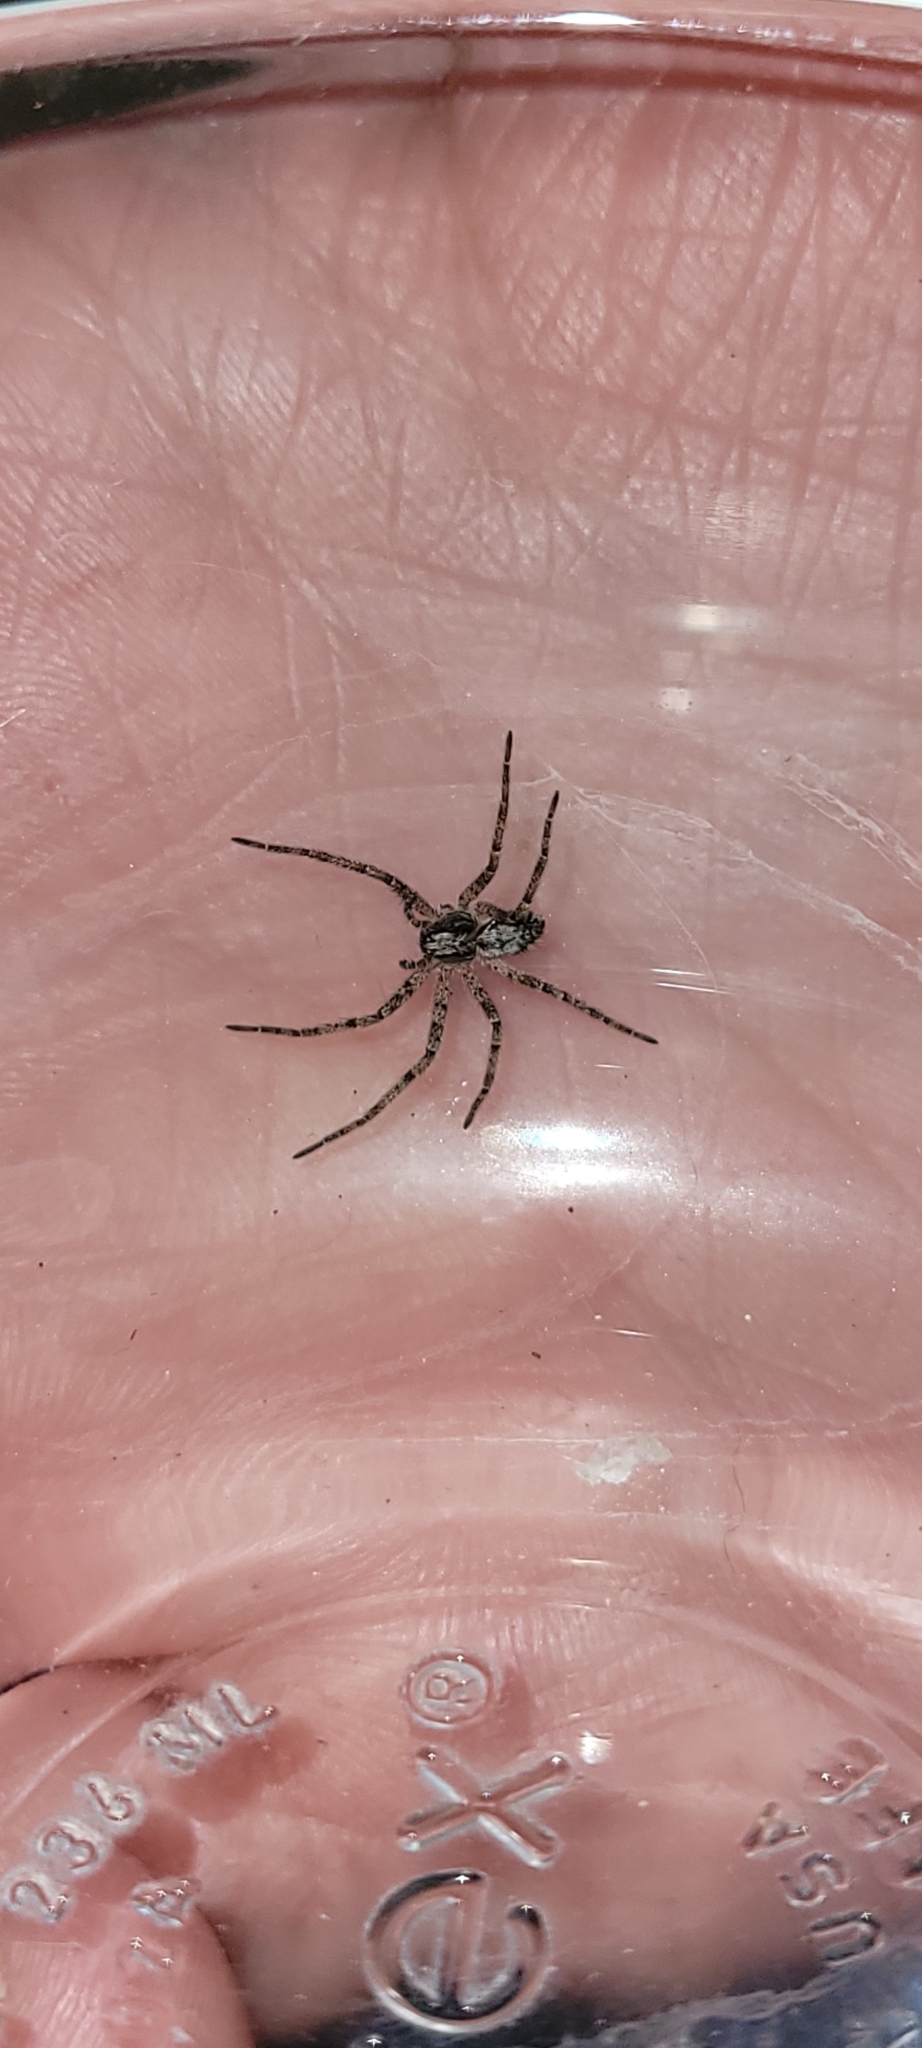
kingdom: Animalia
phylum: Arthropoda
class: Arachnida
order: Araneae
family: Philodromidae
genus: Apollophanes
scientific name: Apollophanes margareta
